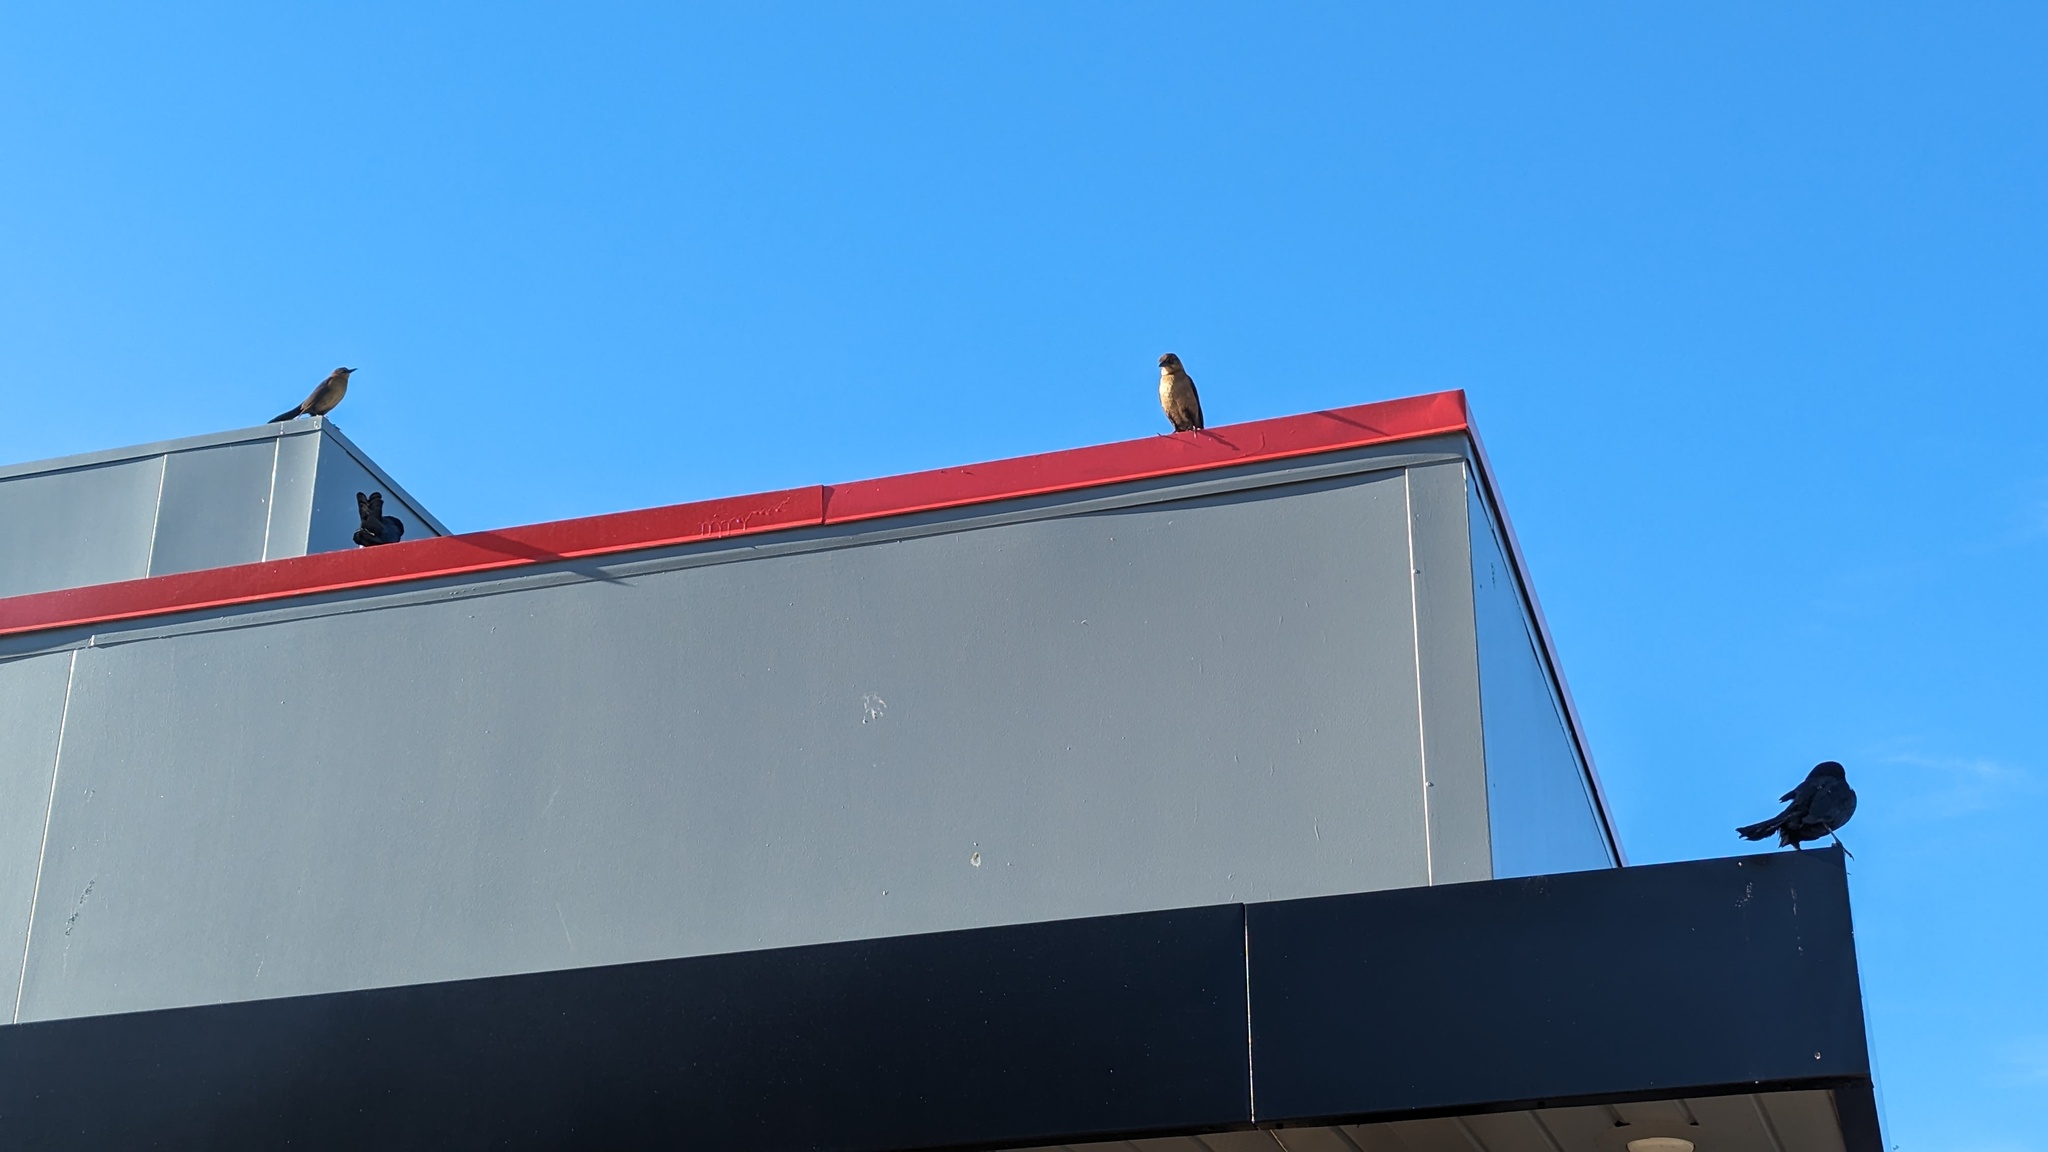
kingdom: Animalia
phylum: Chordata
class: Aves
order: Passeriformes
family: Icteridae
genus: Quiscalus
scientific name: Quiscalus major
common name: Boat-tailed grackle
